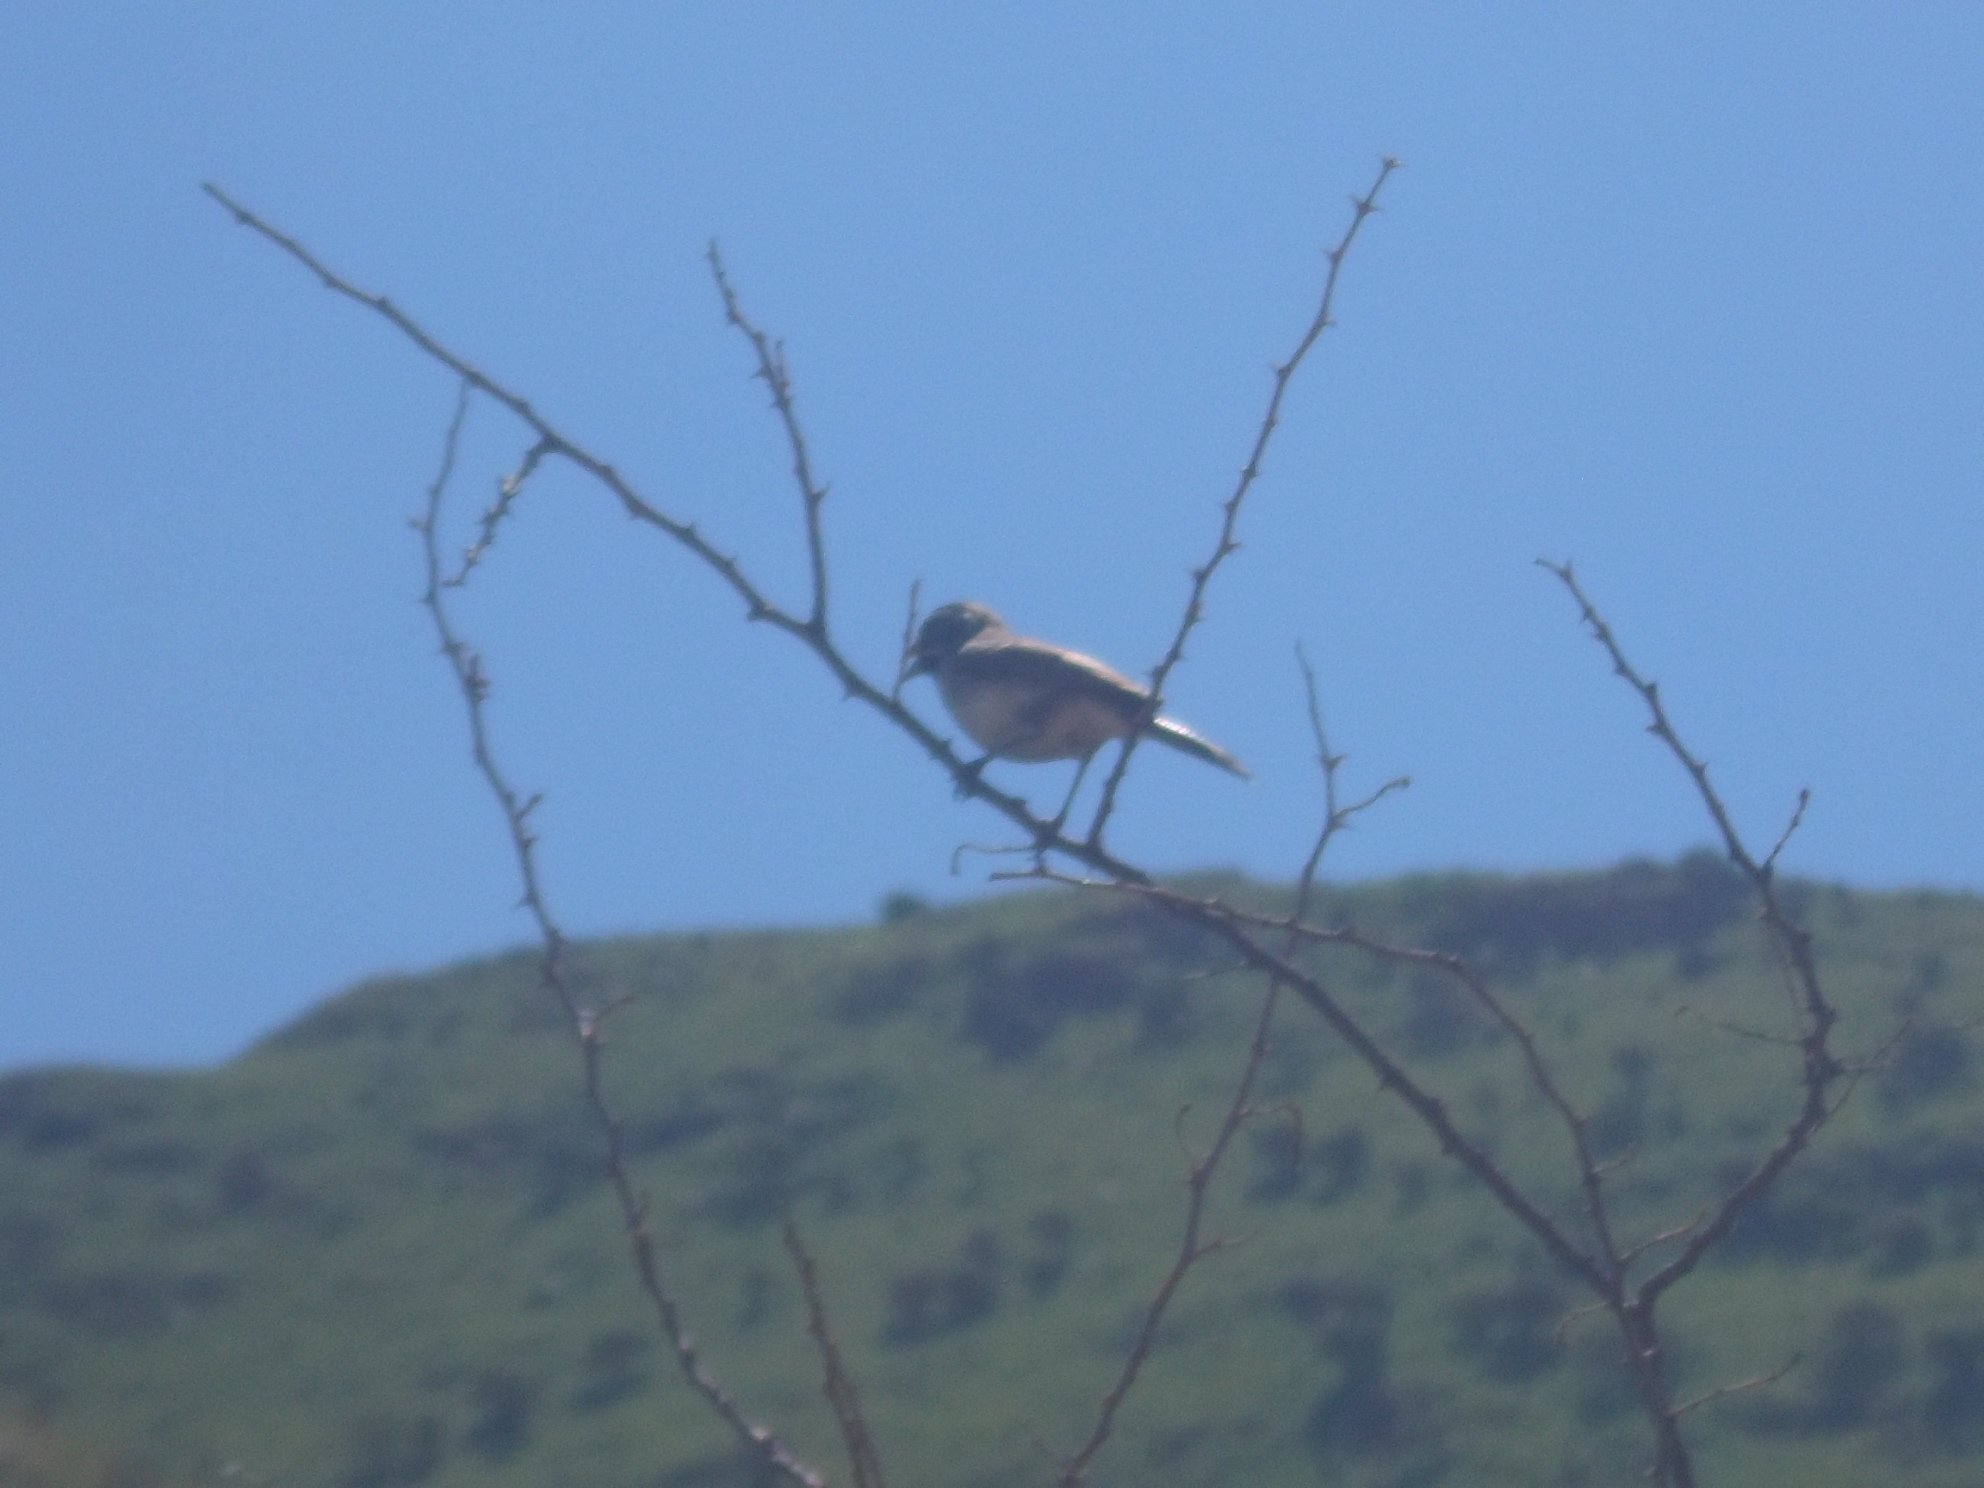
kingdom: Animalia
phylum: Chordata
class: Aves
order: Passeriformes
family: Passerellidae
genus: Amphispiza
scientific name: Amphispiza bilineata
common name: Black-throated sparrow
